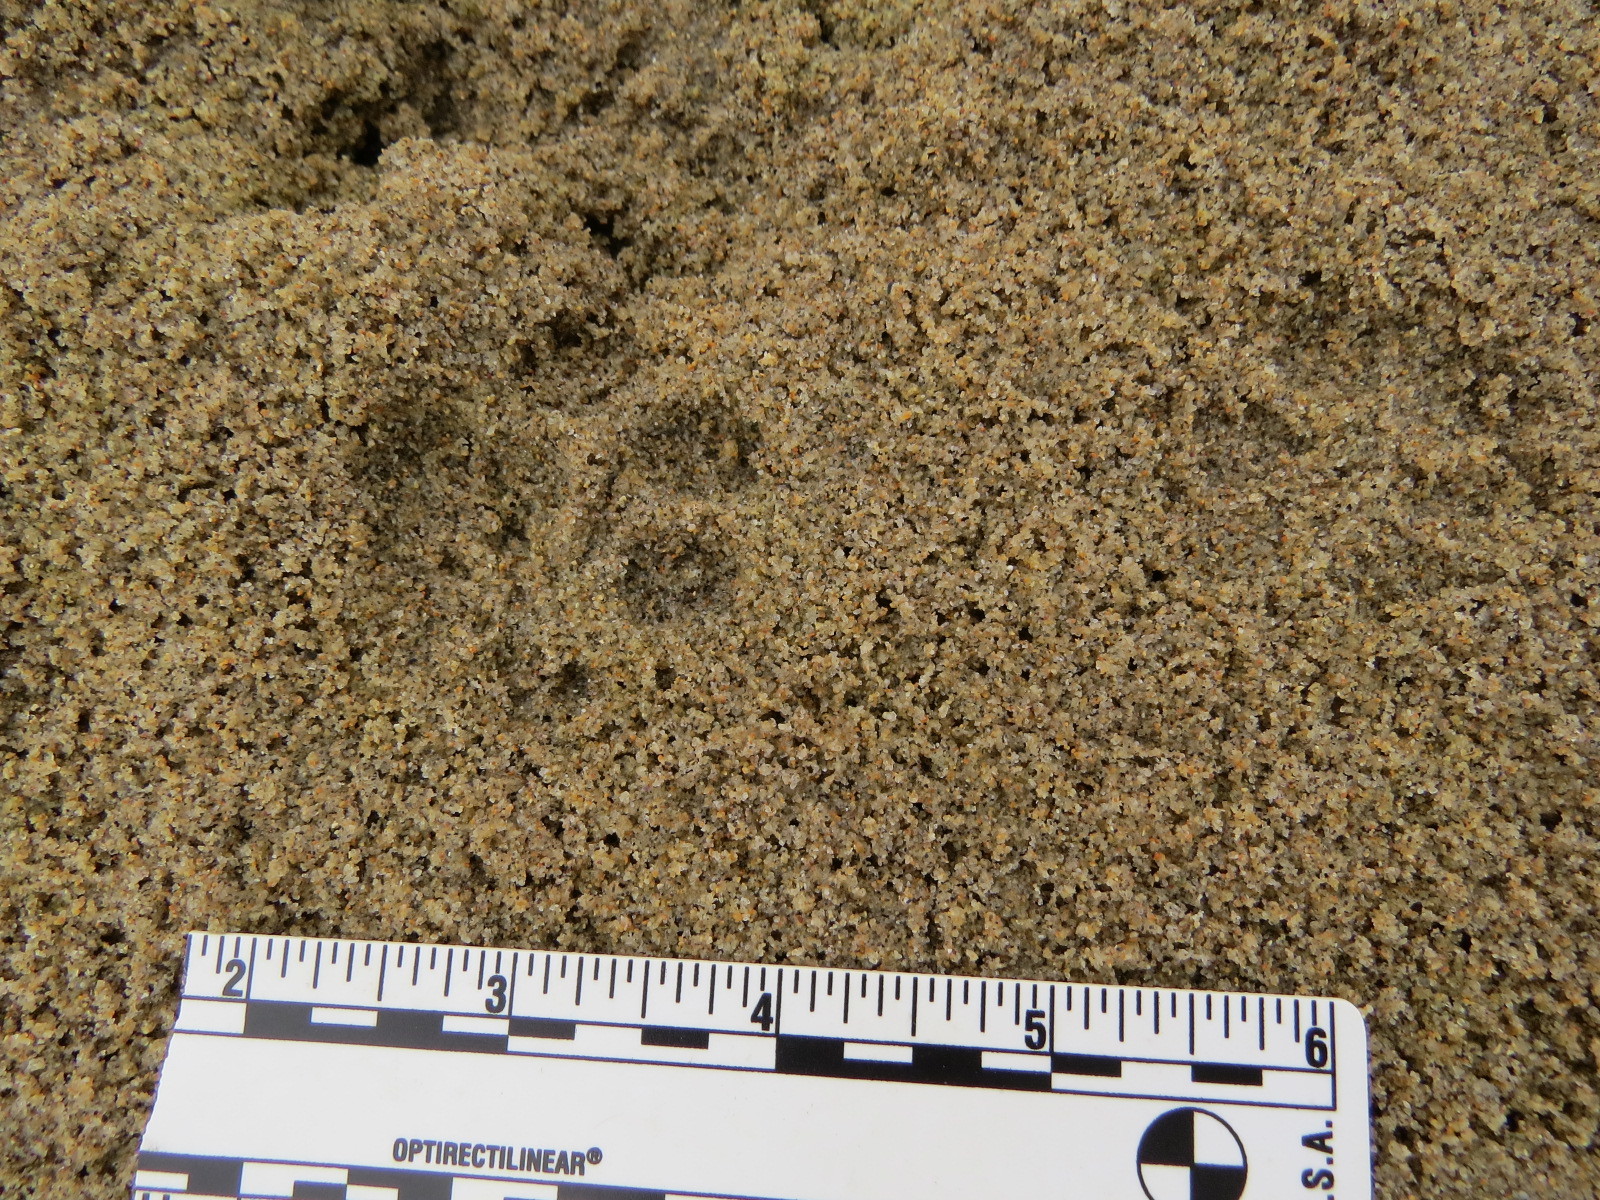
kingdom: Animalia
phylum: Chordata
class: Mammalia
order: Carnivora
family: Felidae
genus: Lynx
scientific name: Lynx rufus
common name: Bobcat
